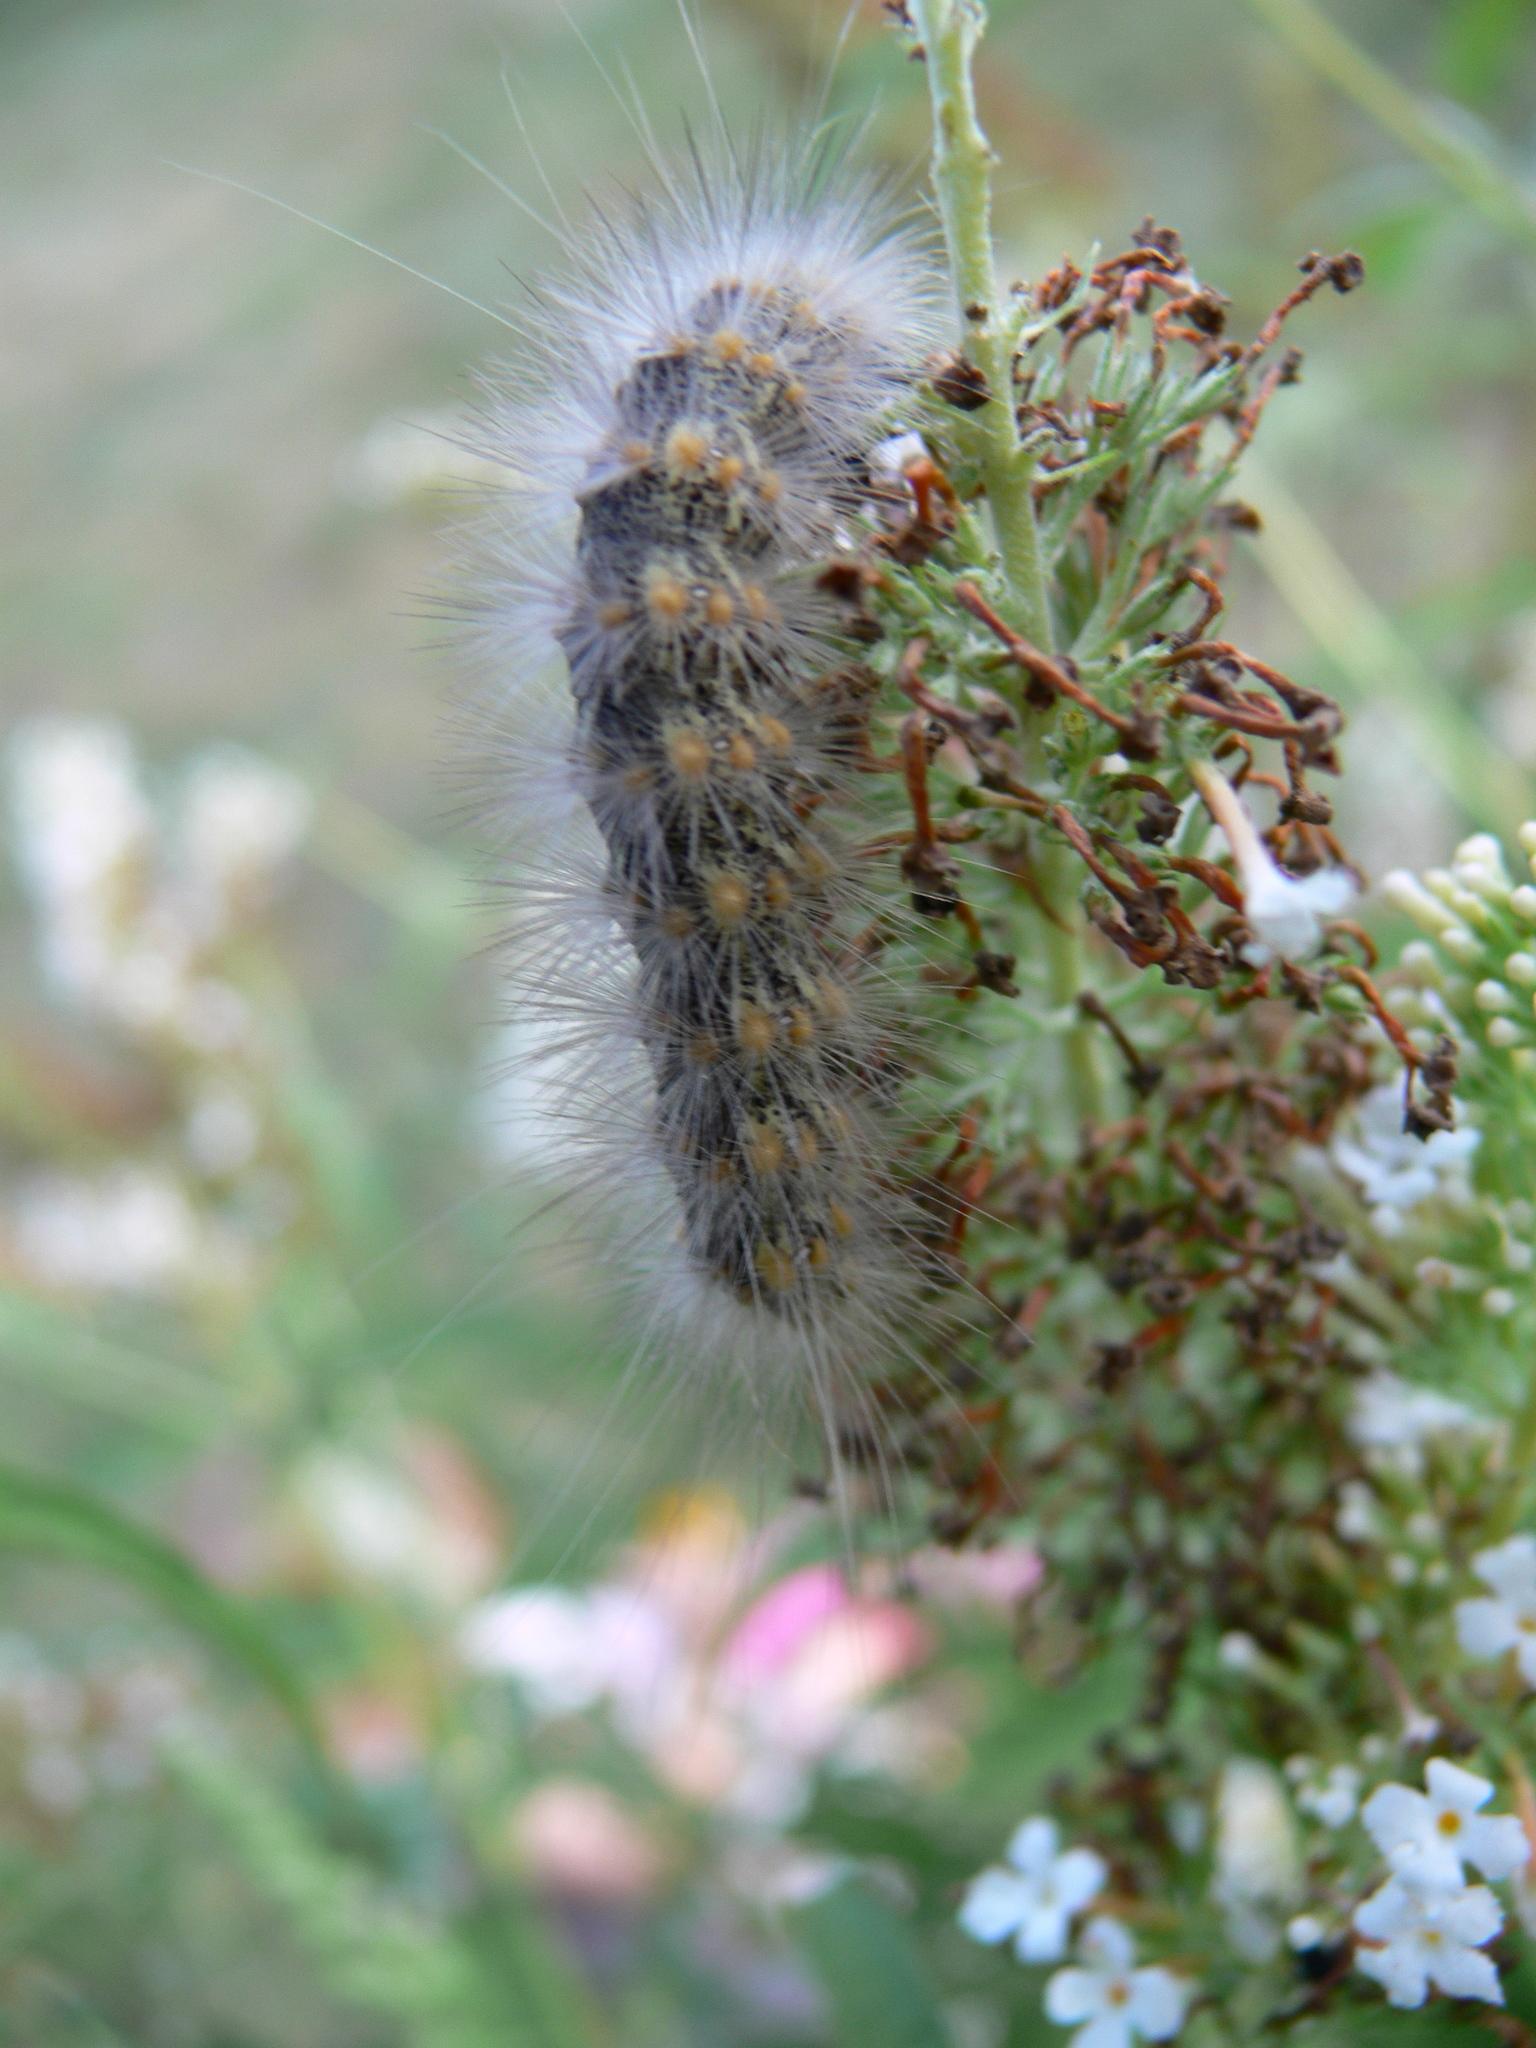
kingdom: Animalia
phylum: Arthropoda
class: Insecta
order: Lepidoptera
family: Erebidae
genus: Hyphantria
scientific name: Hyphantria cunea
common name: American white moth
